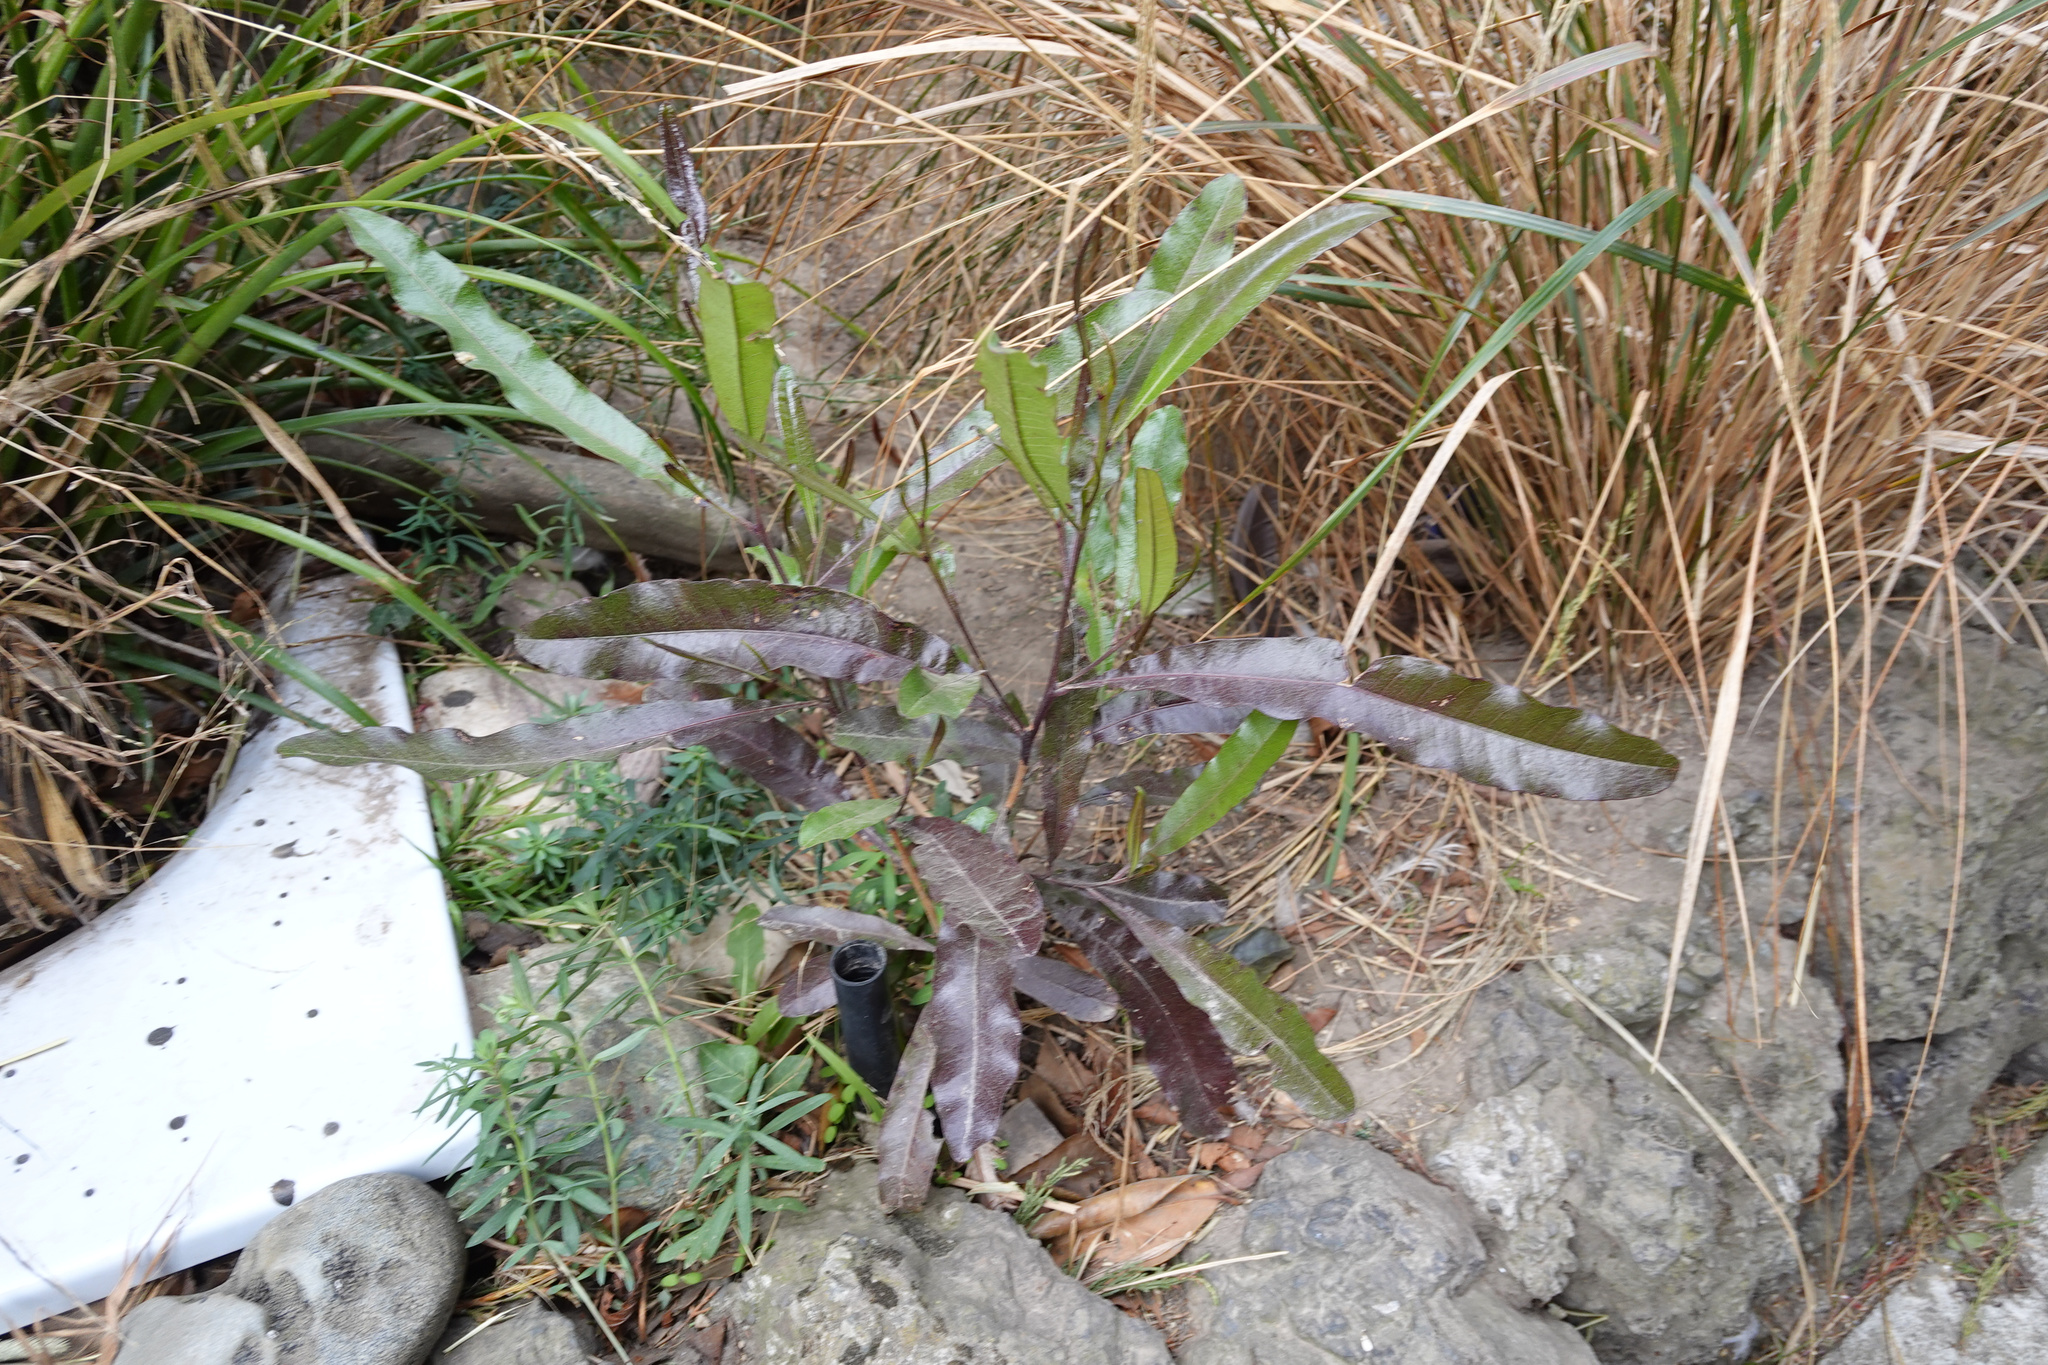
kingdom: Plantae
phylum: Tracheophyta
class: Magnoliopsida
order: Sapindales
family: Sapindaceae
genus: Dodonaea
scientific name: Dodonaea viscosa
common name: Hopbush
